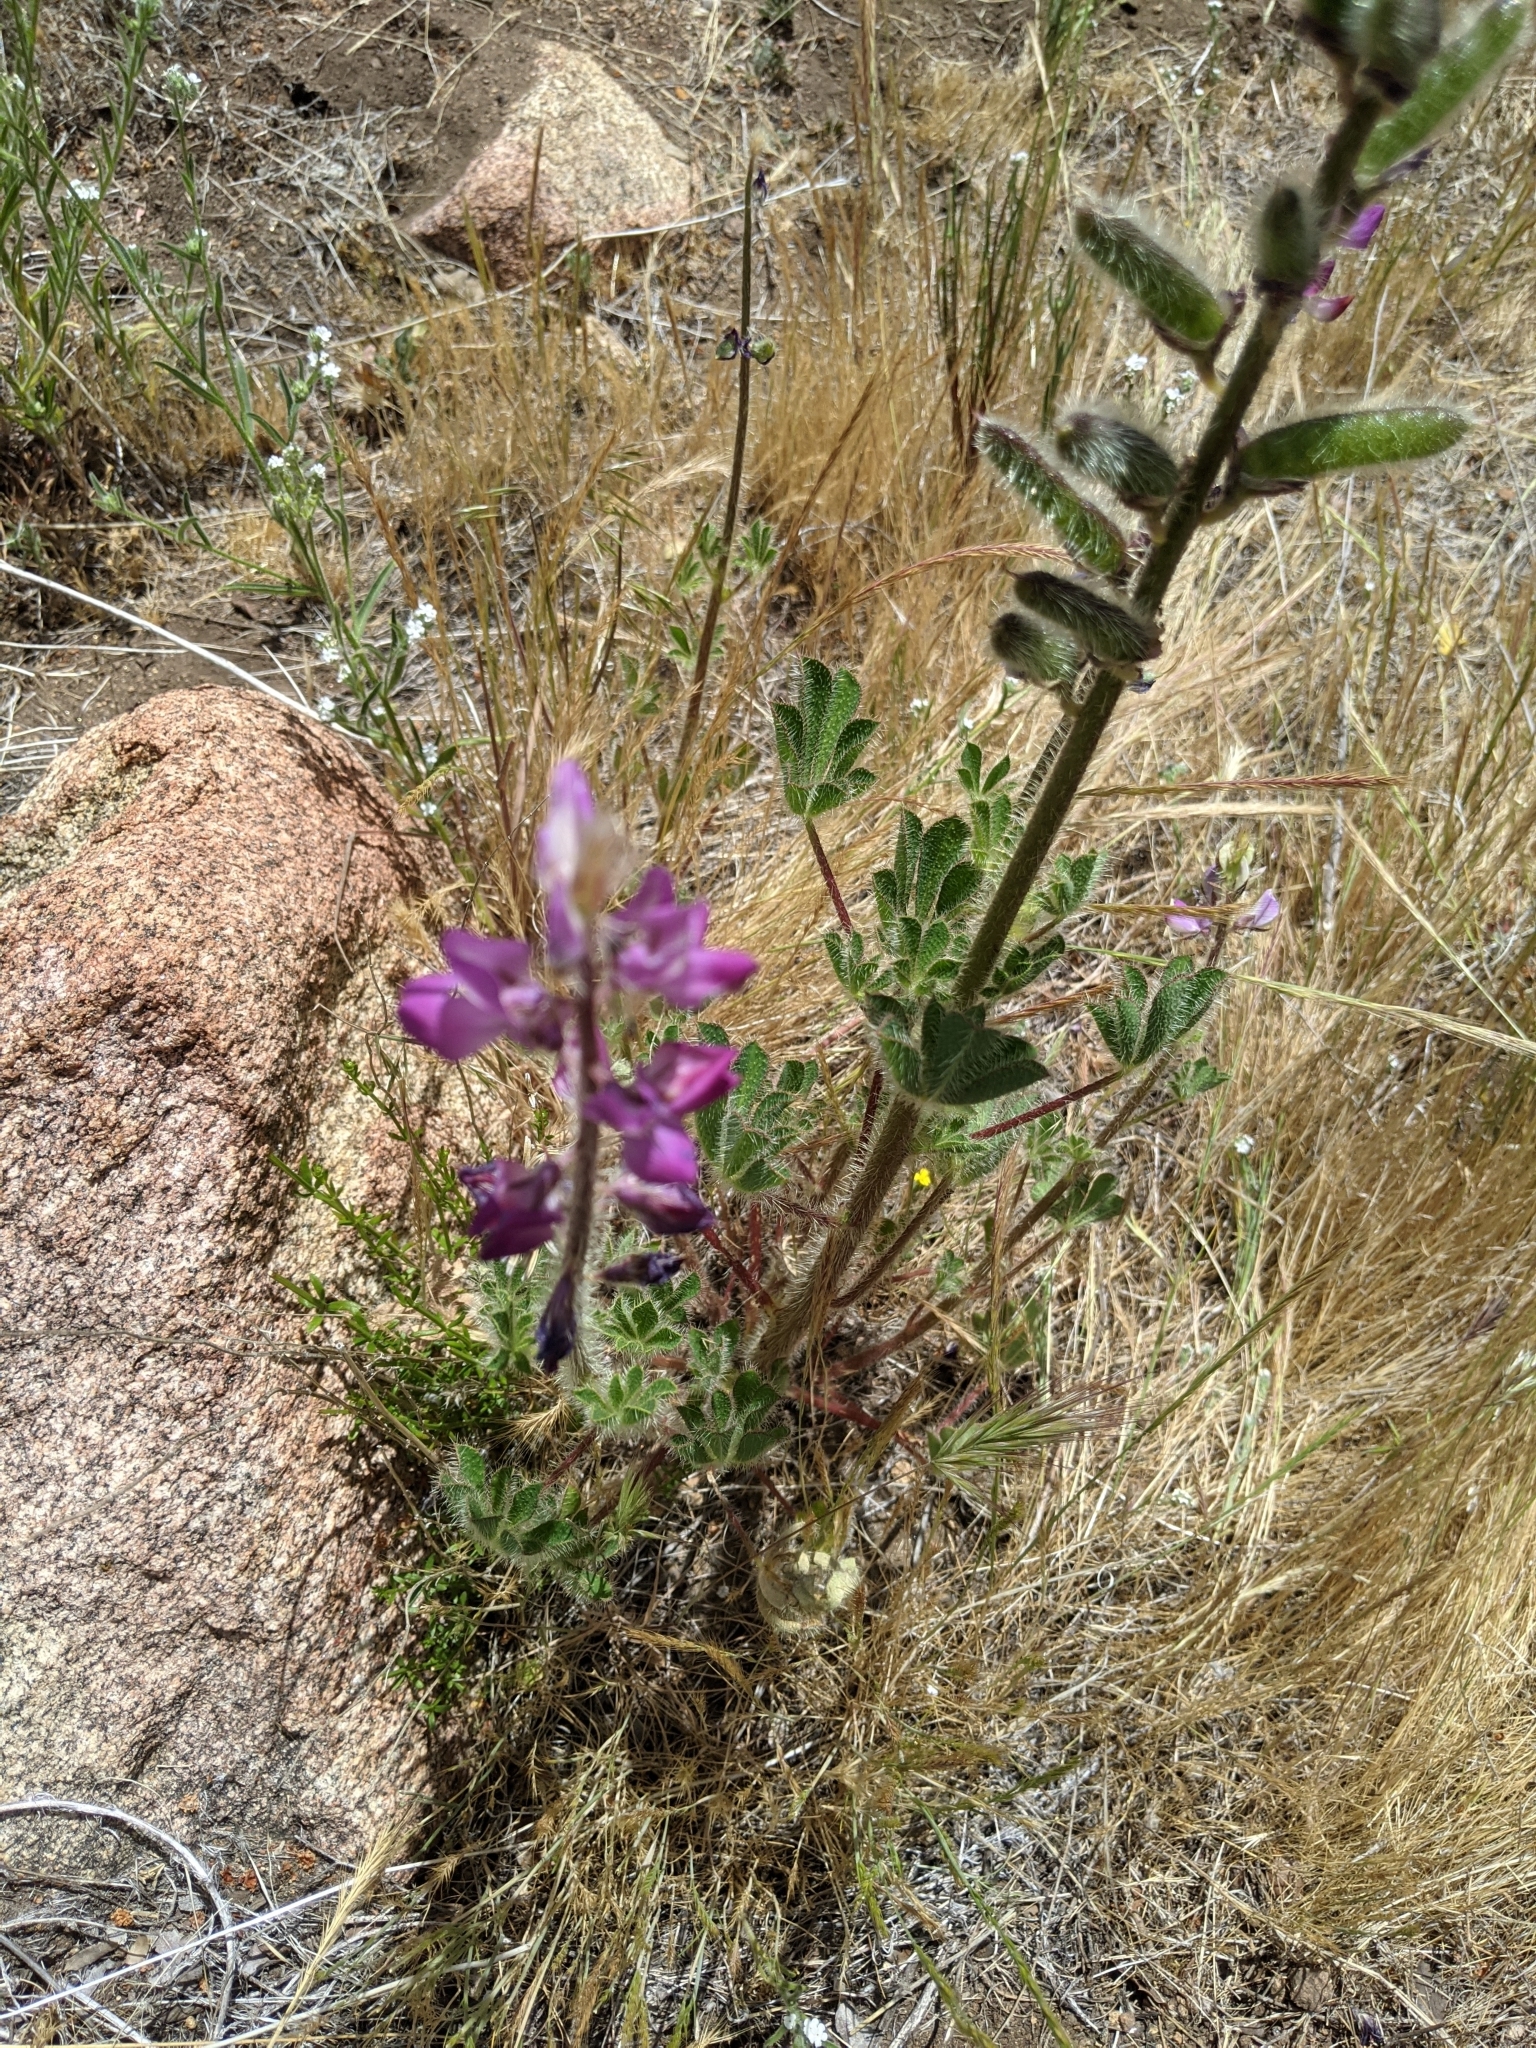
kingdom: Plantae
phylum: Tracheophyta
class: Magnoliopsida
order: Fabales
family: Fabaceae
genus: Lupinus
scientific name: Lupinus hirsutissimus
